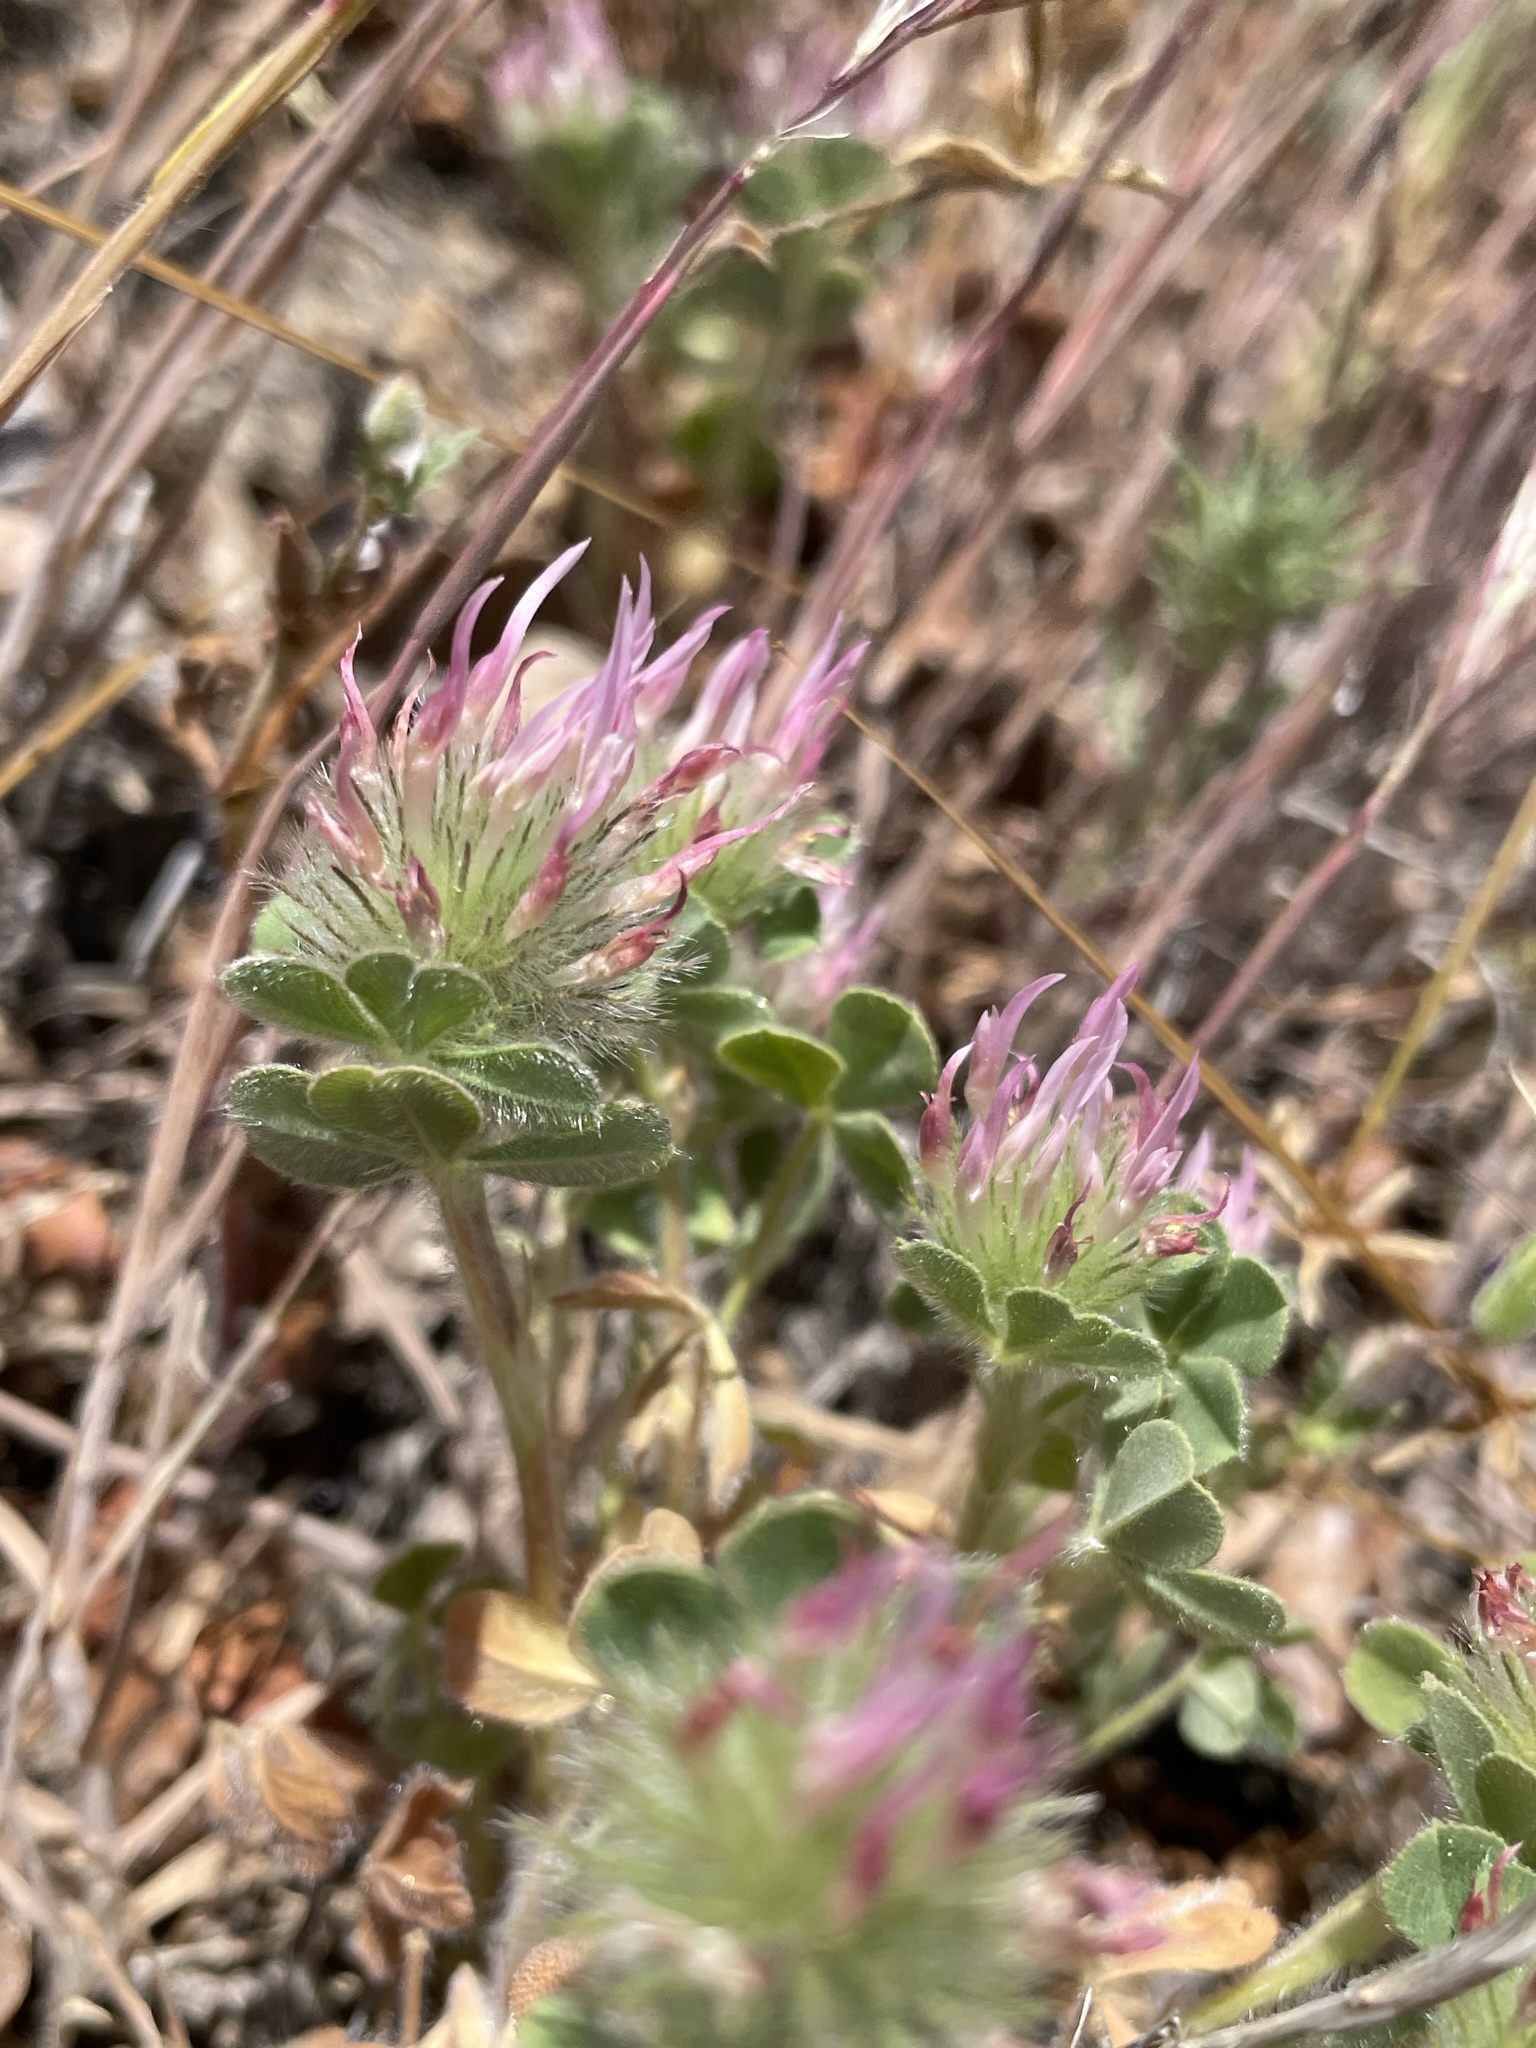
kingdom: Plantae
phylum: Tracheophyta
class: Magnoliopsida
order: Fabales
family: Fabaceae
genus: Trifolium
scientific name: Trifolium hirtum
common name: Rose clover
